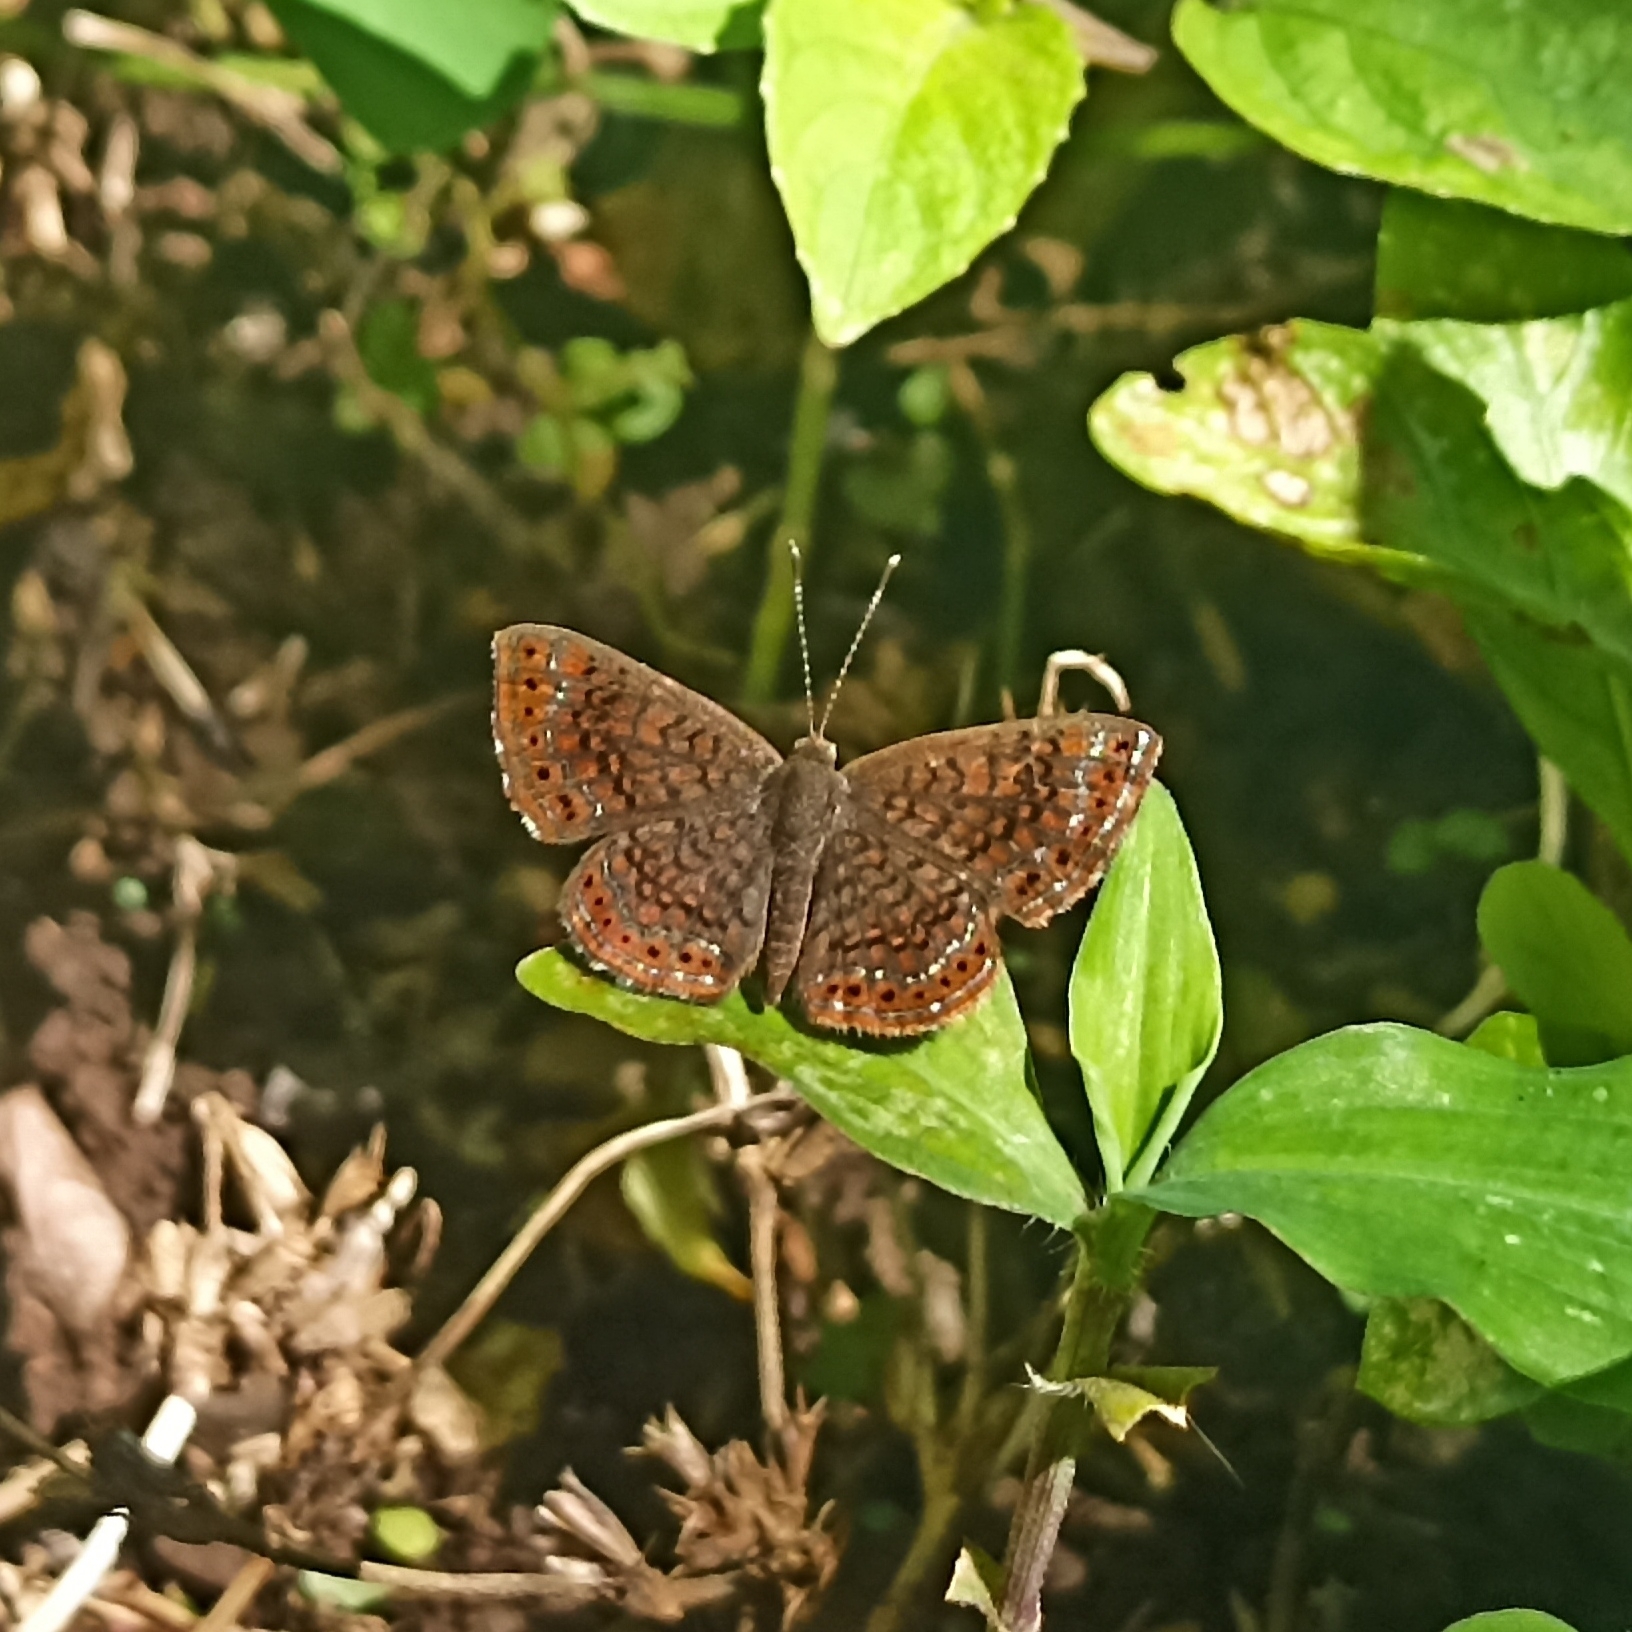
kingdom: Animalia
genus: Calephelis
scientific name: Calephelis laverna
